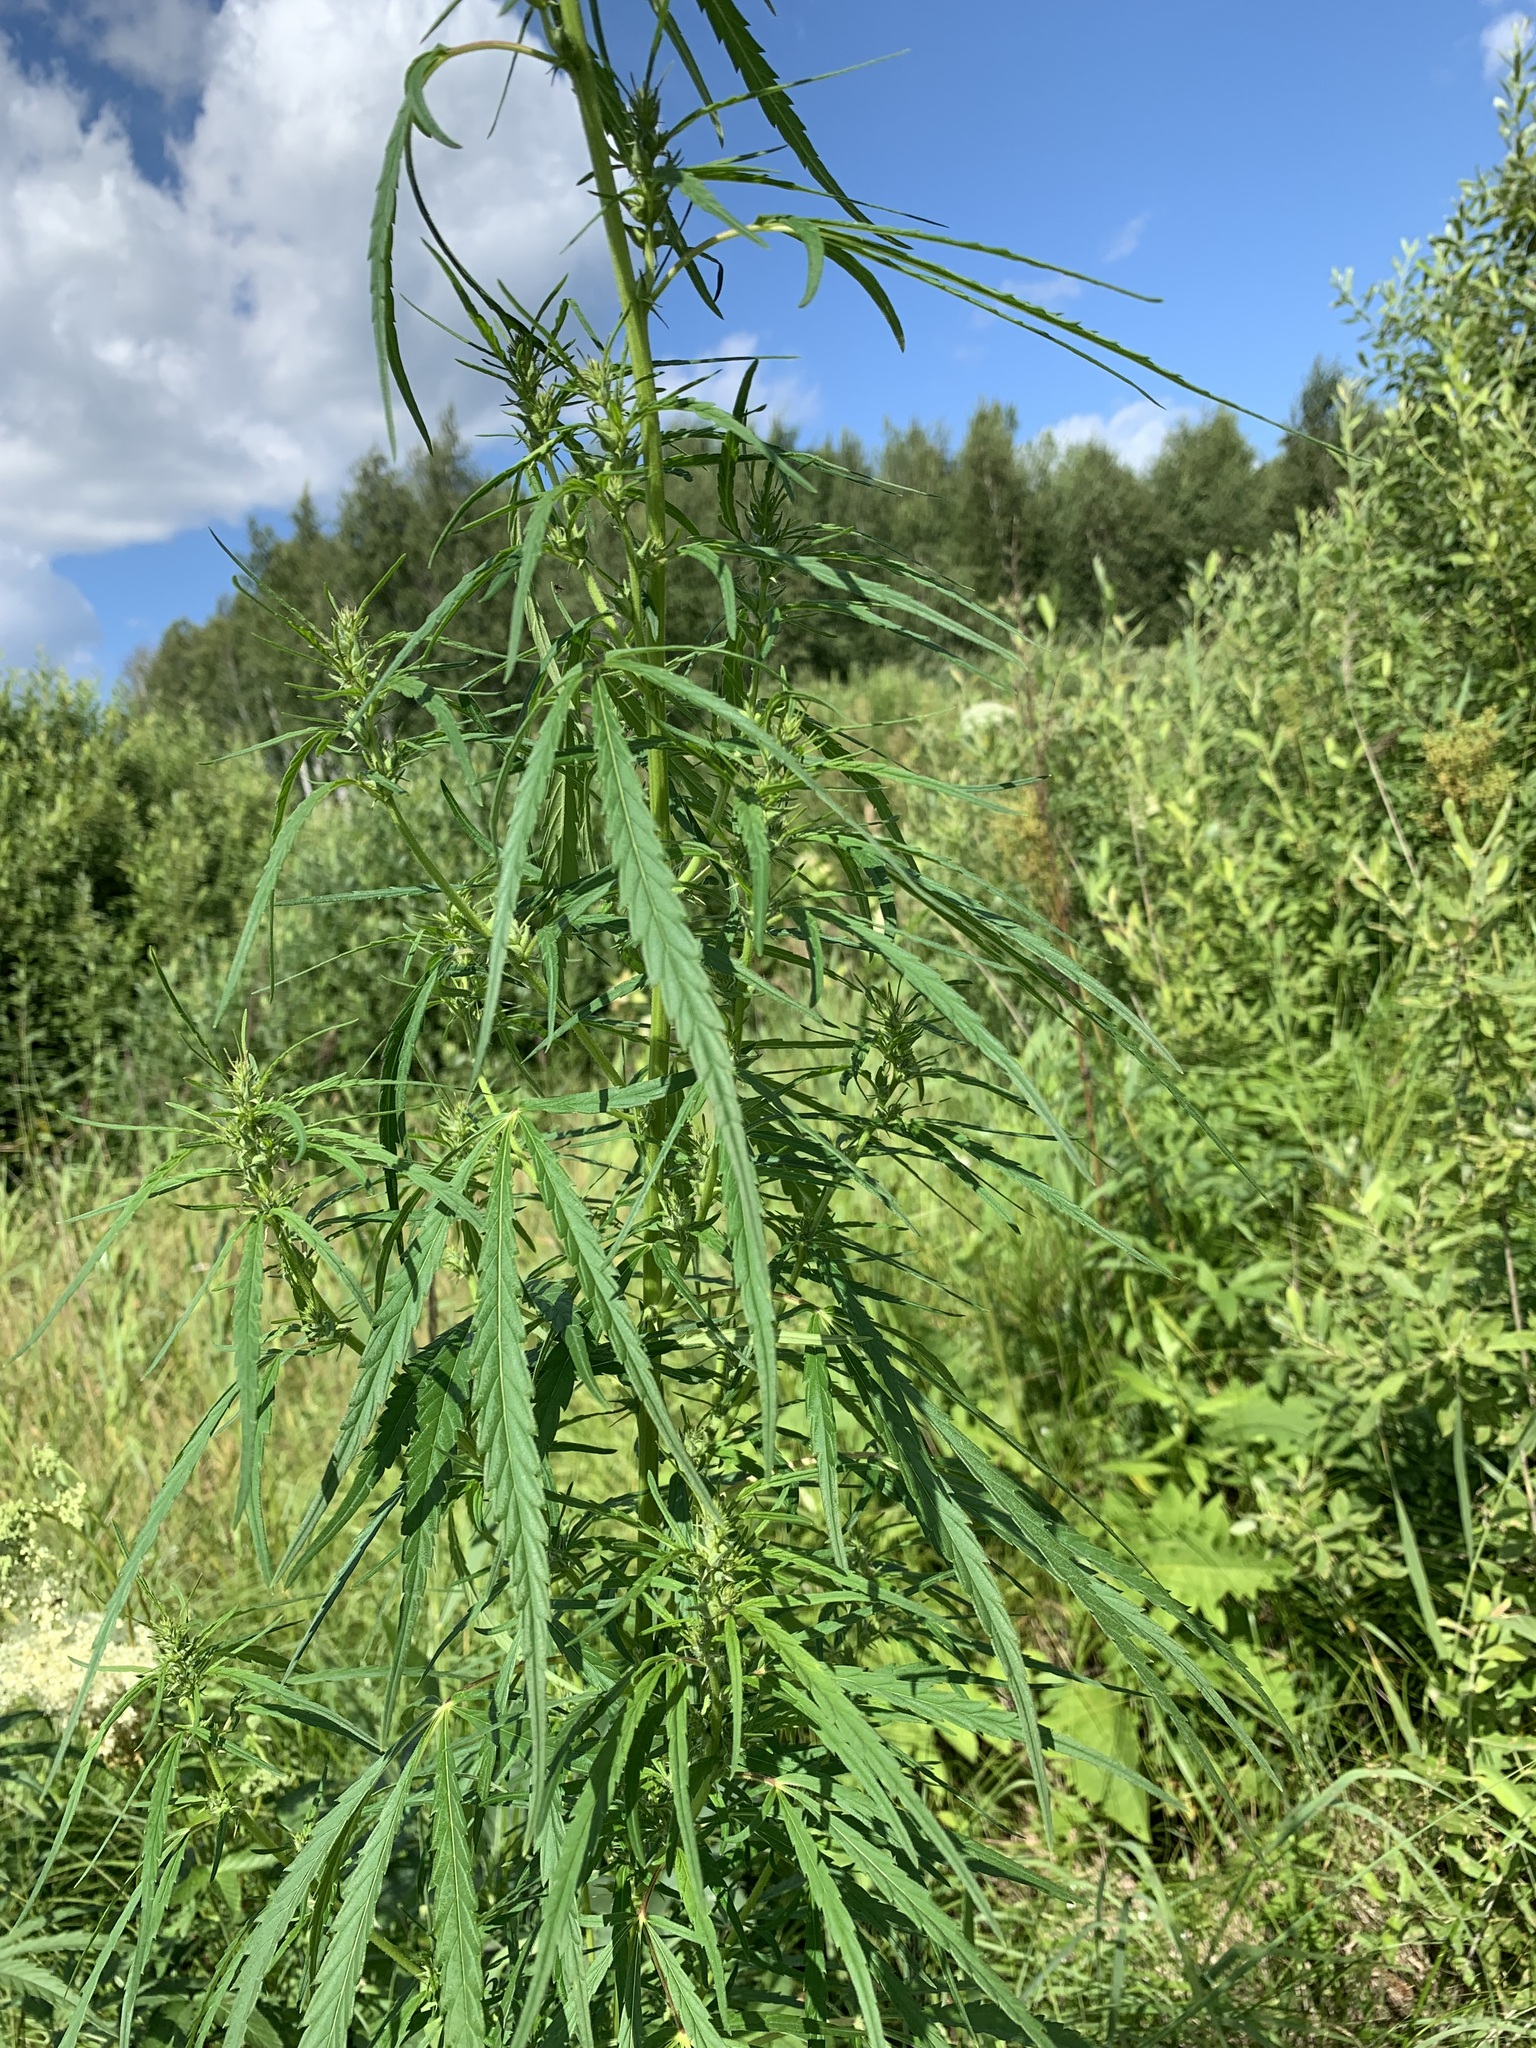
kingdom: Plantae
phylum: Tracheophyta
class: Magnoliopsida
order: Rosales
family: Cannabaceae
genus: Cannabis
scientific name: Cannabis sativa
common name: Hemp
